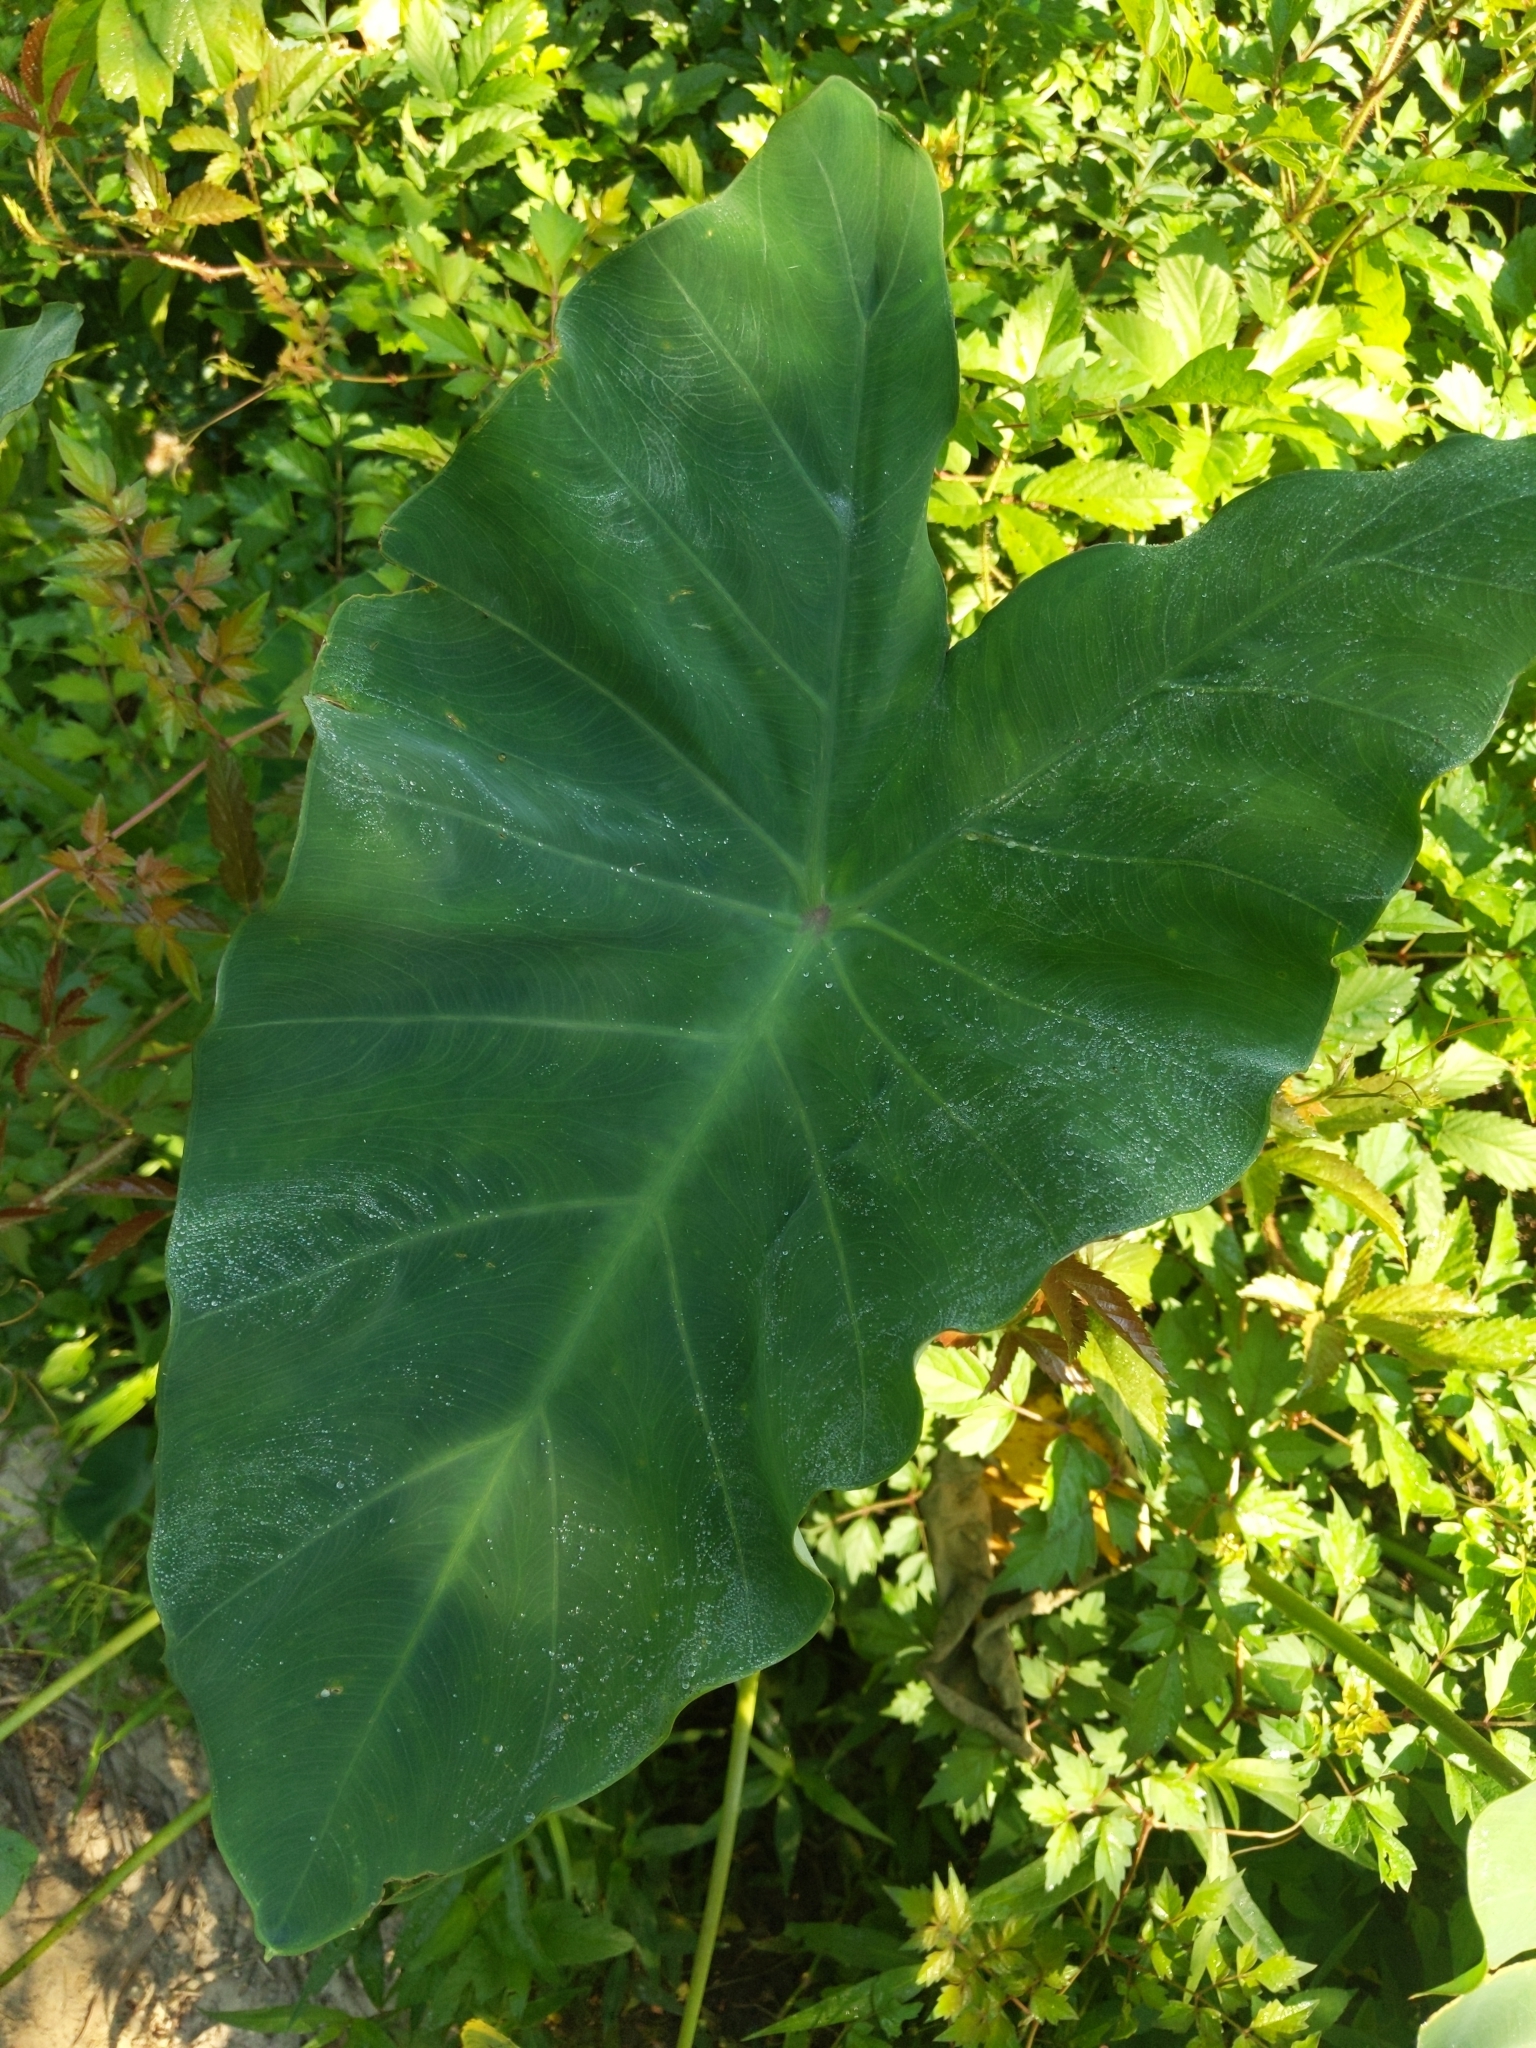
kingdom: Plantae
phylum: Tracheophyta
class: Liliopsida
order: Alismatales
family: Araceae
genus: Colocasia
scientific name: Colocasia esculenta
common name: Taro
